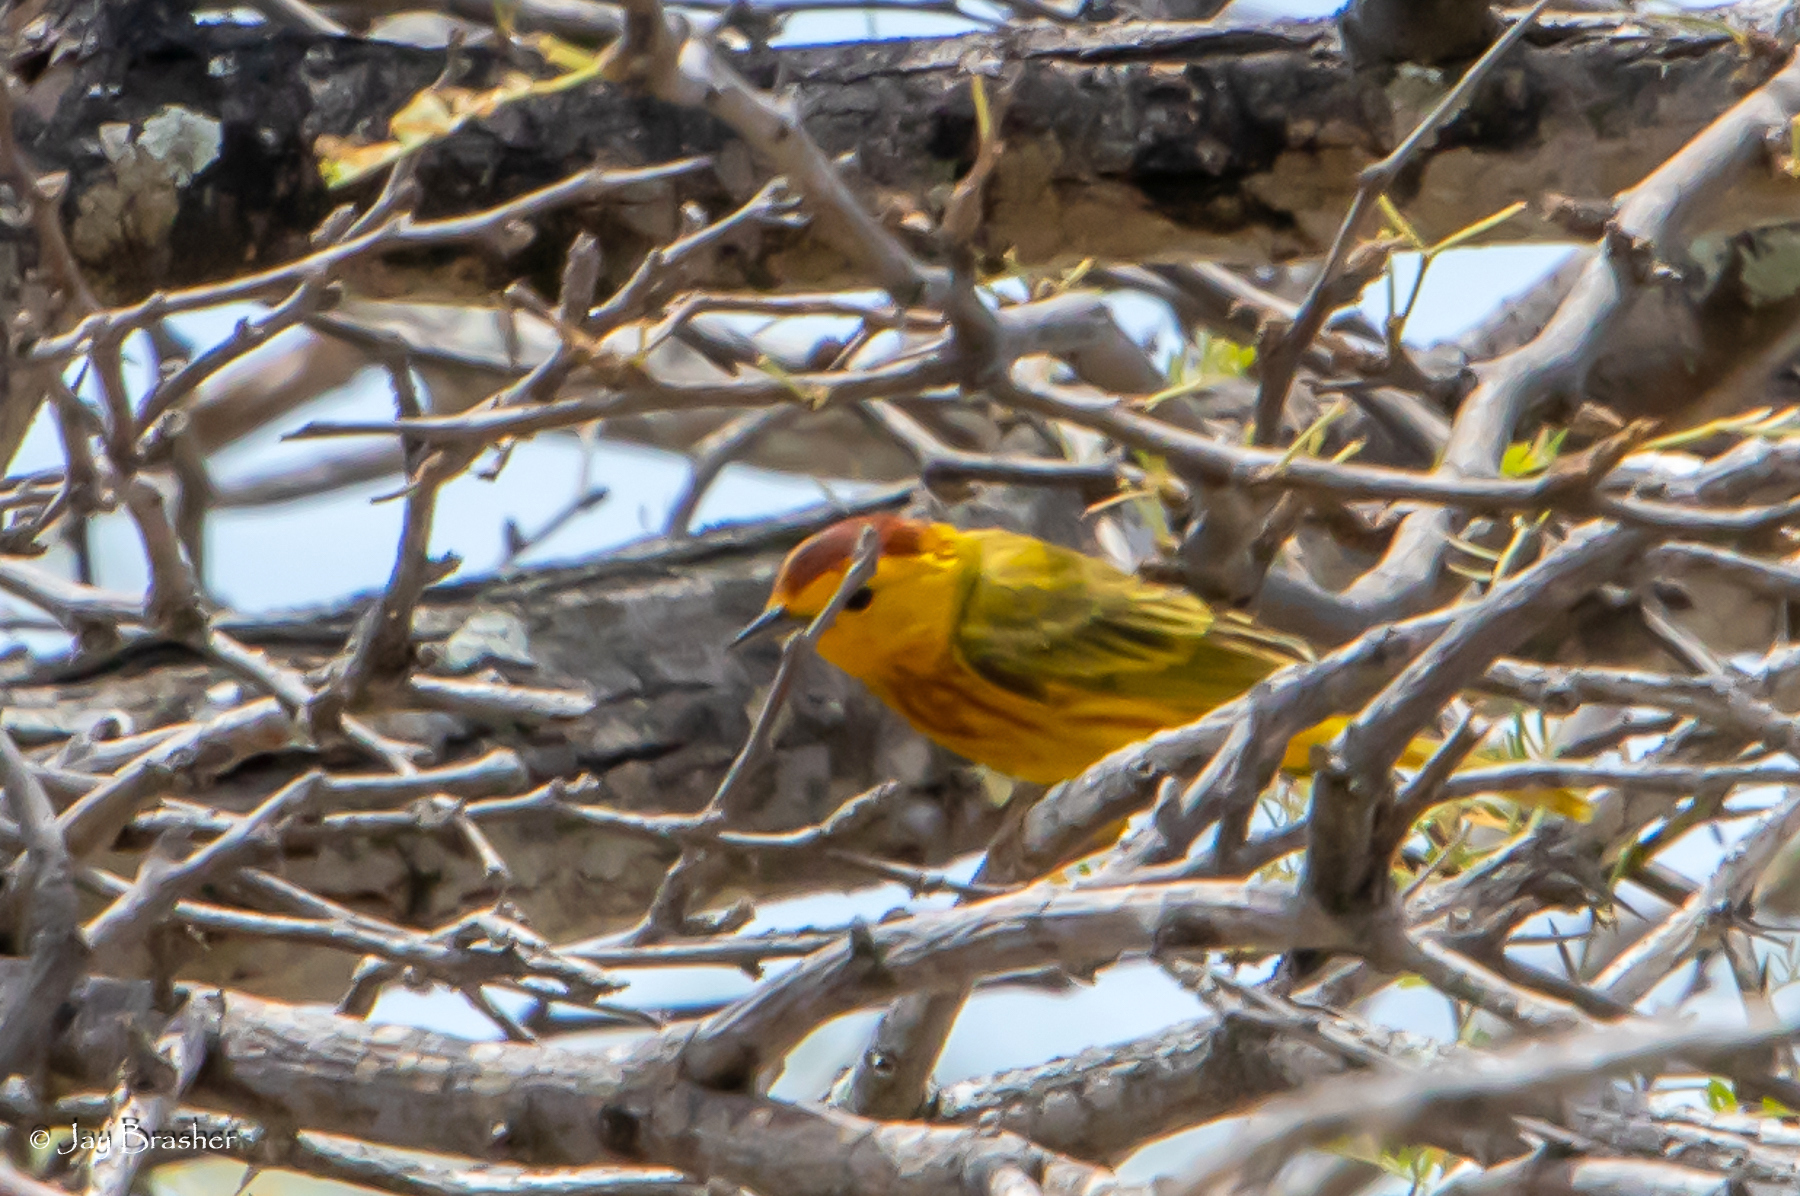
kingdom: Animalia
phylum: Chordata
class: Aves
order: Passeriformes
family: Parulidae
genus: Setophaga
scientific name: Setophaga petechia
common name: Yellow warbler
